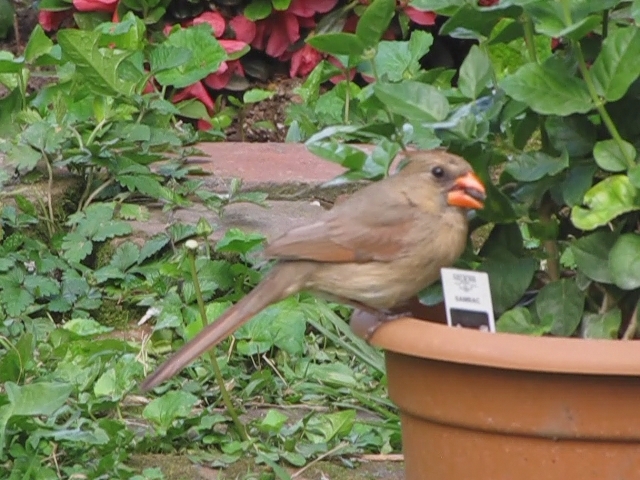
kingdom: Animalia
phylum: Chordata
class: Aves
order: Passeriformes
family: Cardinalidae
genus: Cardinalis
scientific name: Cardinalis cardinalis
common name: Northern cardinal
